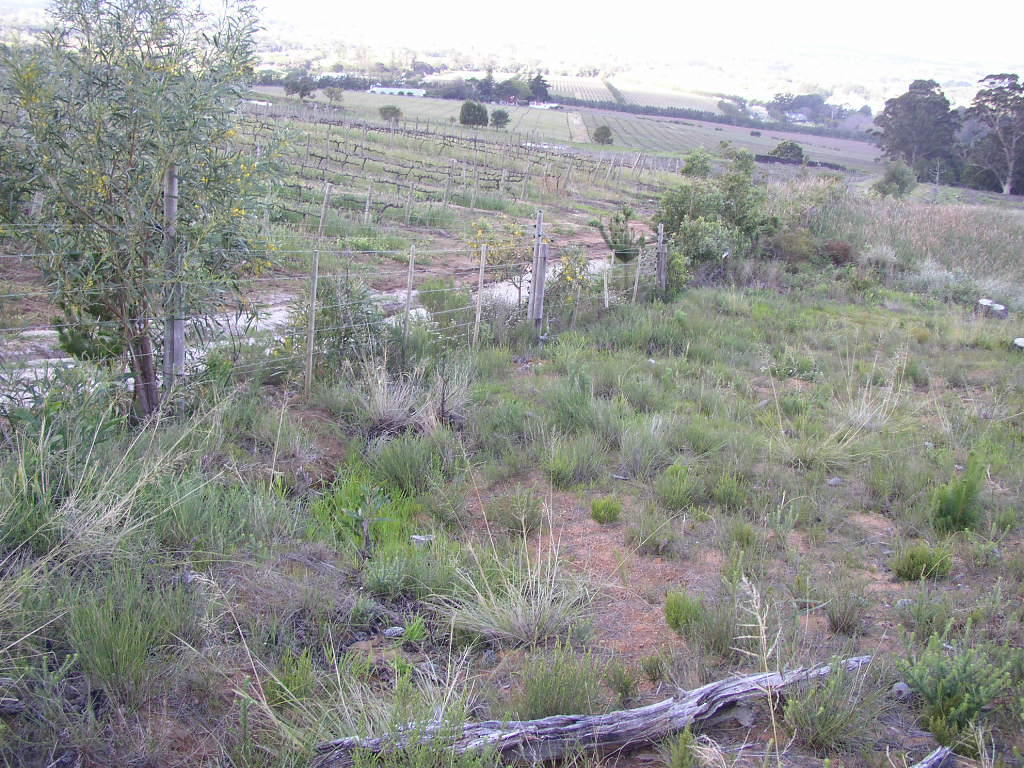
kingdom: Plantae
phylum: Tracheophyta
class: Magnoliopsida
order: Fabales
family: Fabaceae
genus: Acacia
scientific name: Acacia saligna
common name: Orange wattle
